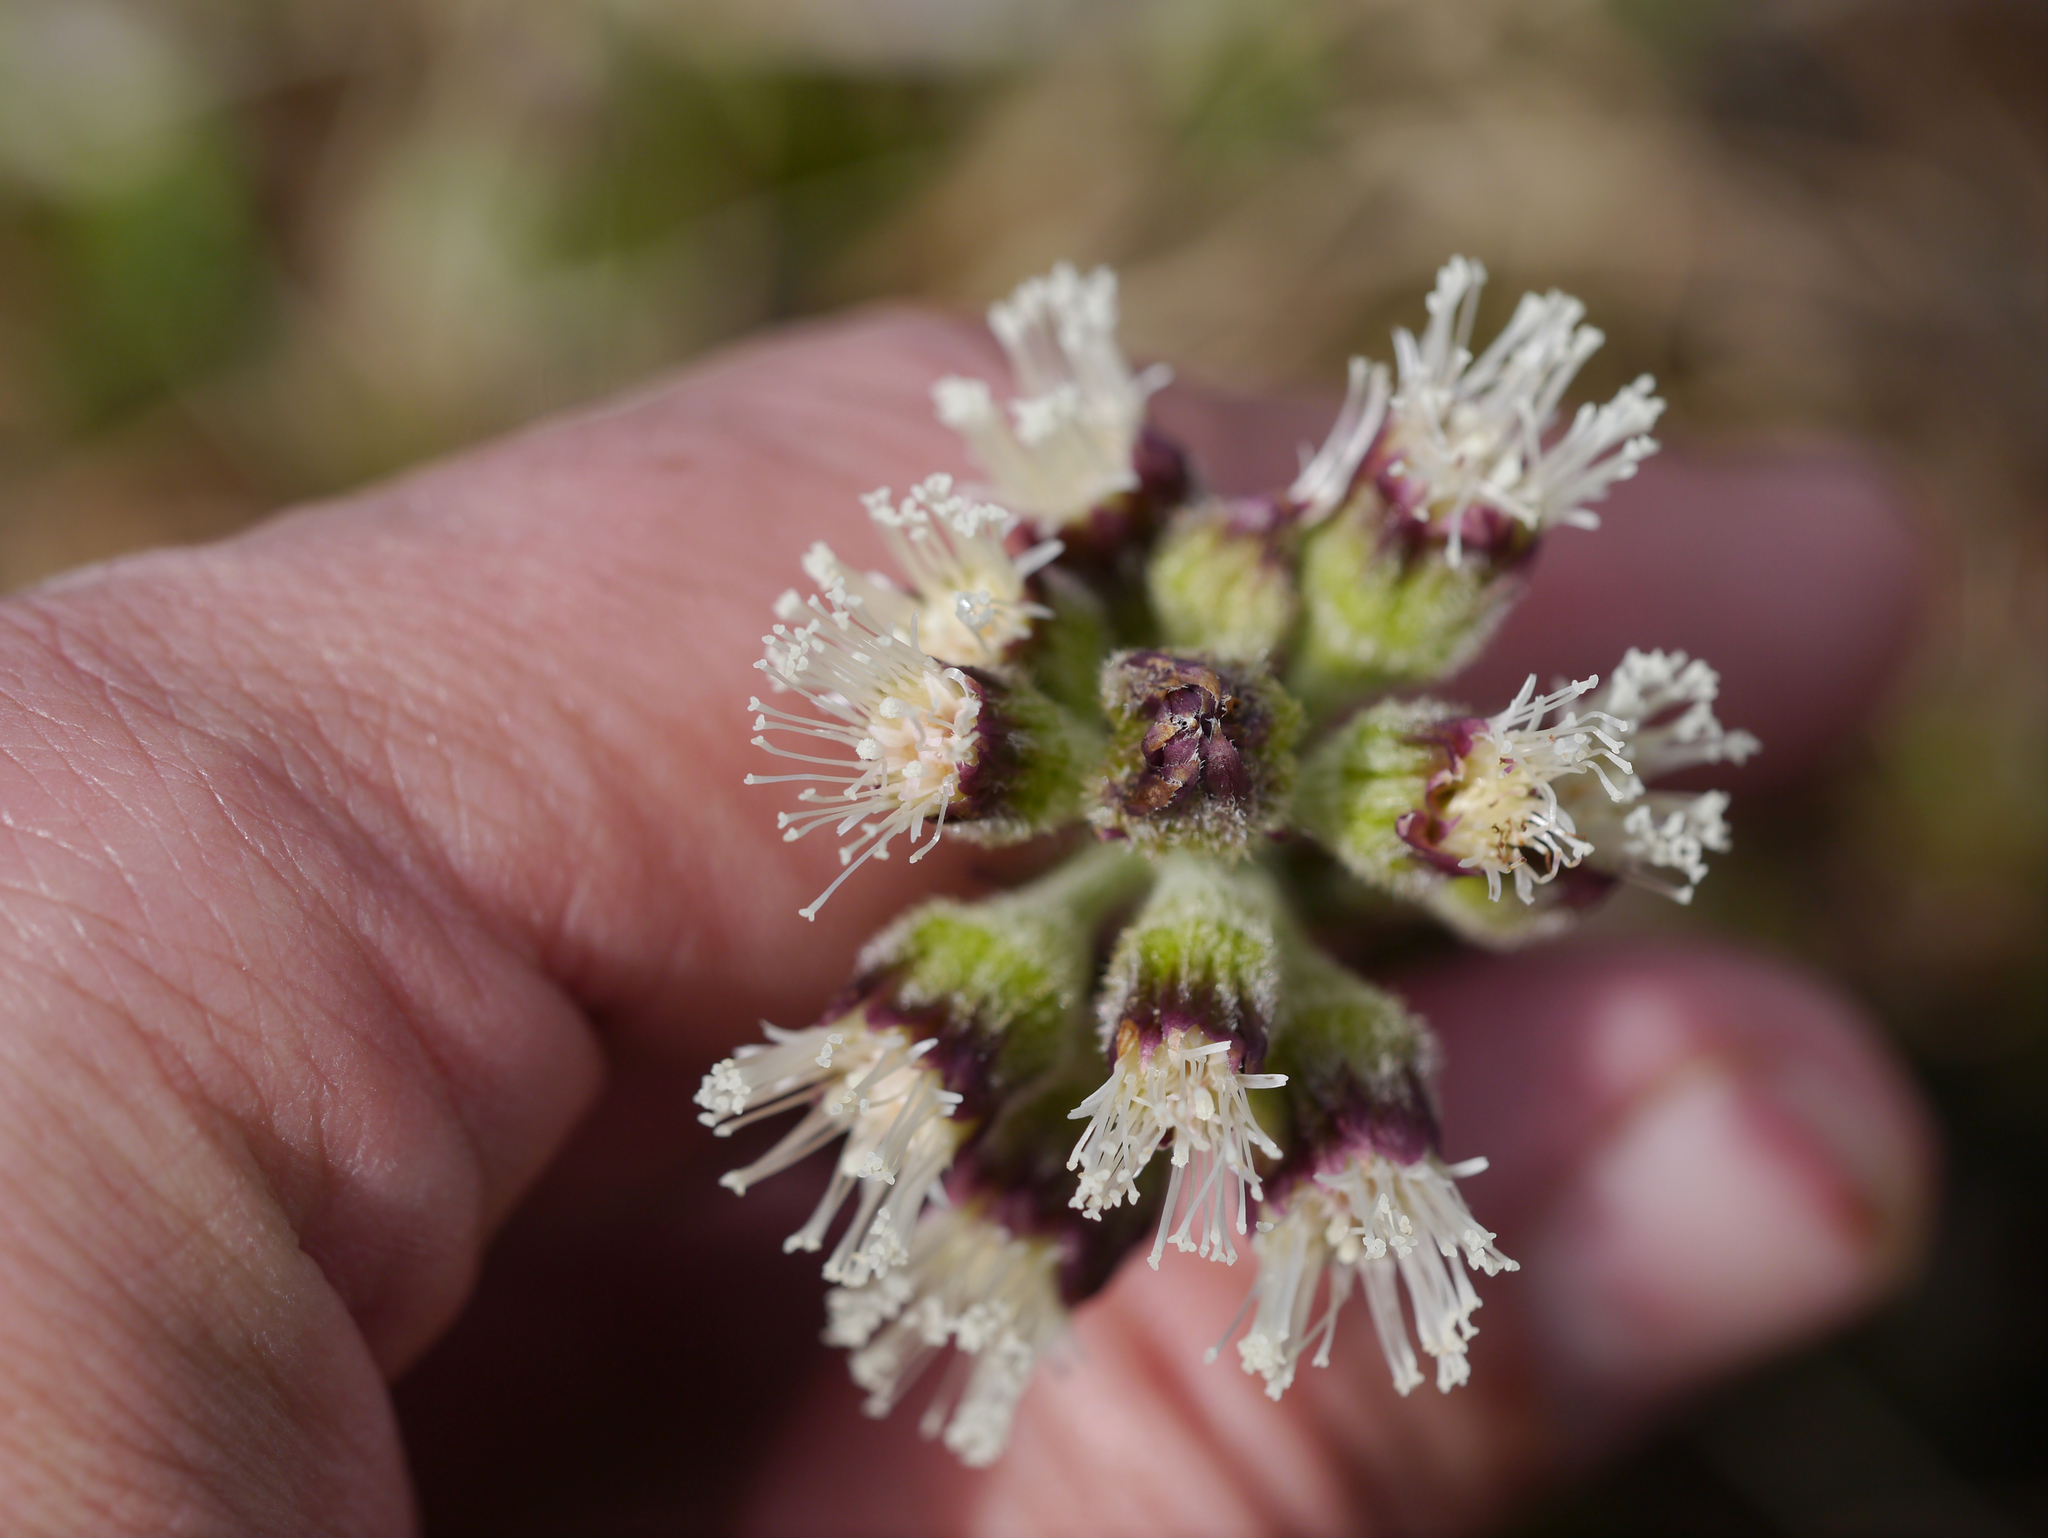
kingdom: Plantae
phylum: Tracheophyta
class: Magnoliopsida
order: Asterales
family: Asteraceae
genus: Petasites
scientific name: Petasites frigidus
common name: Arctic butterbur
